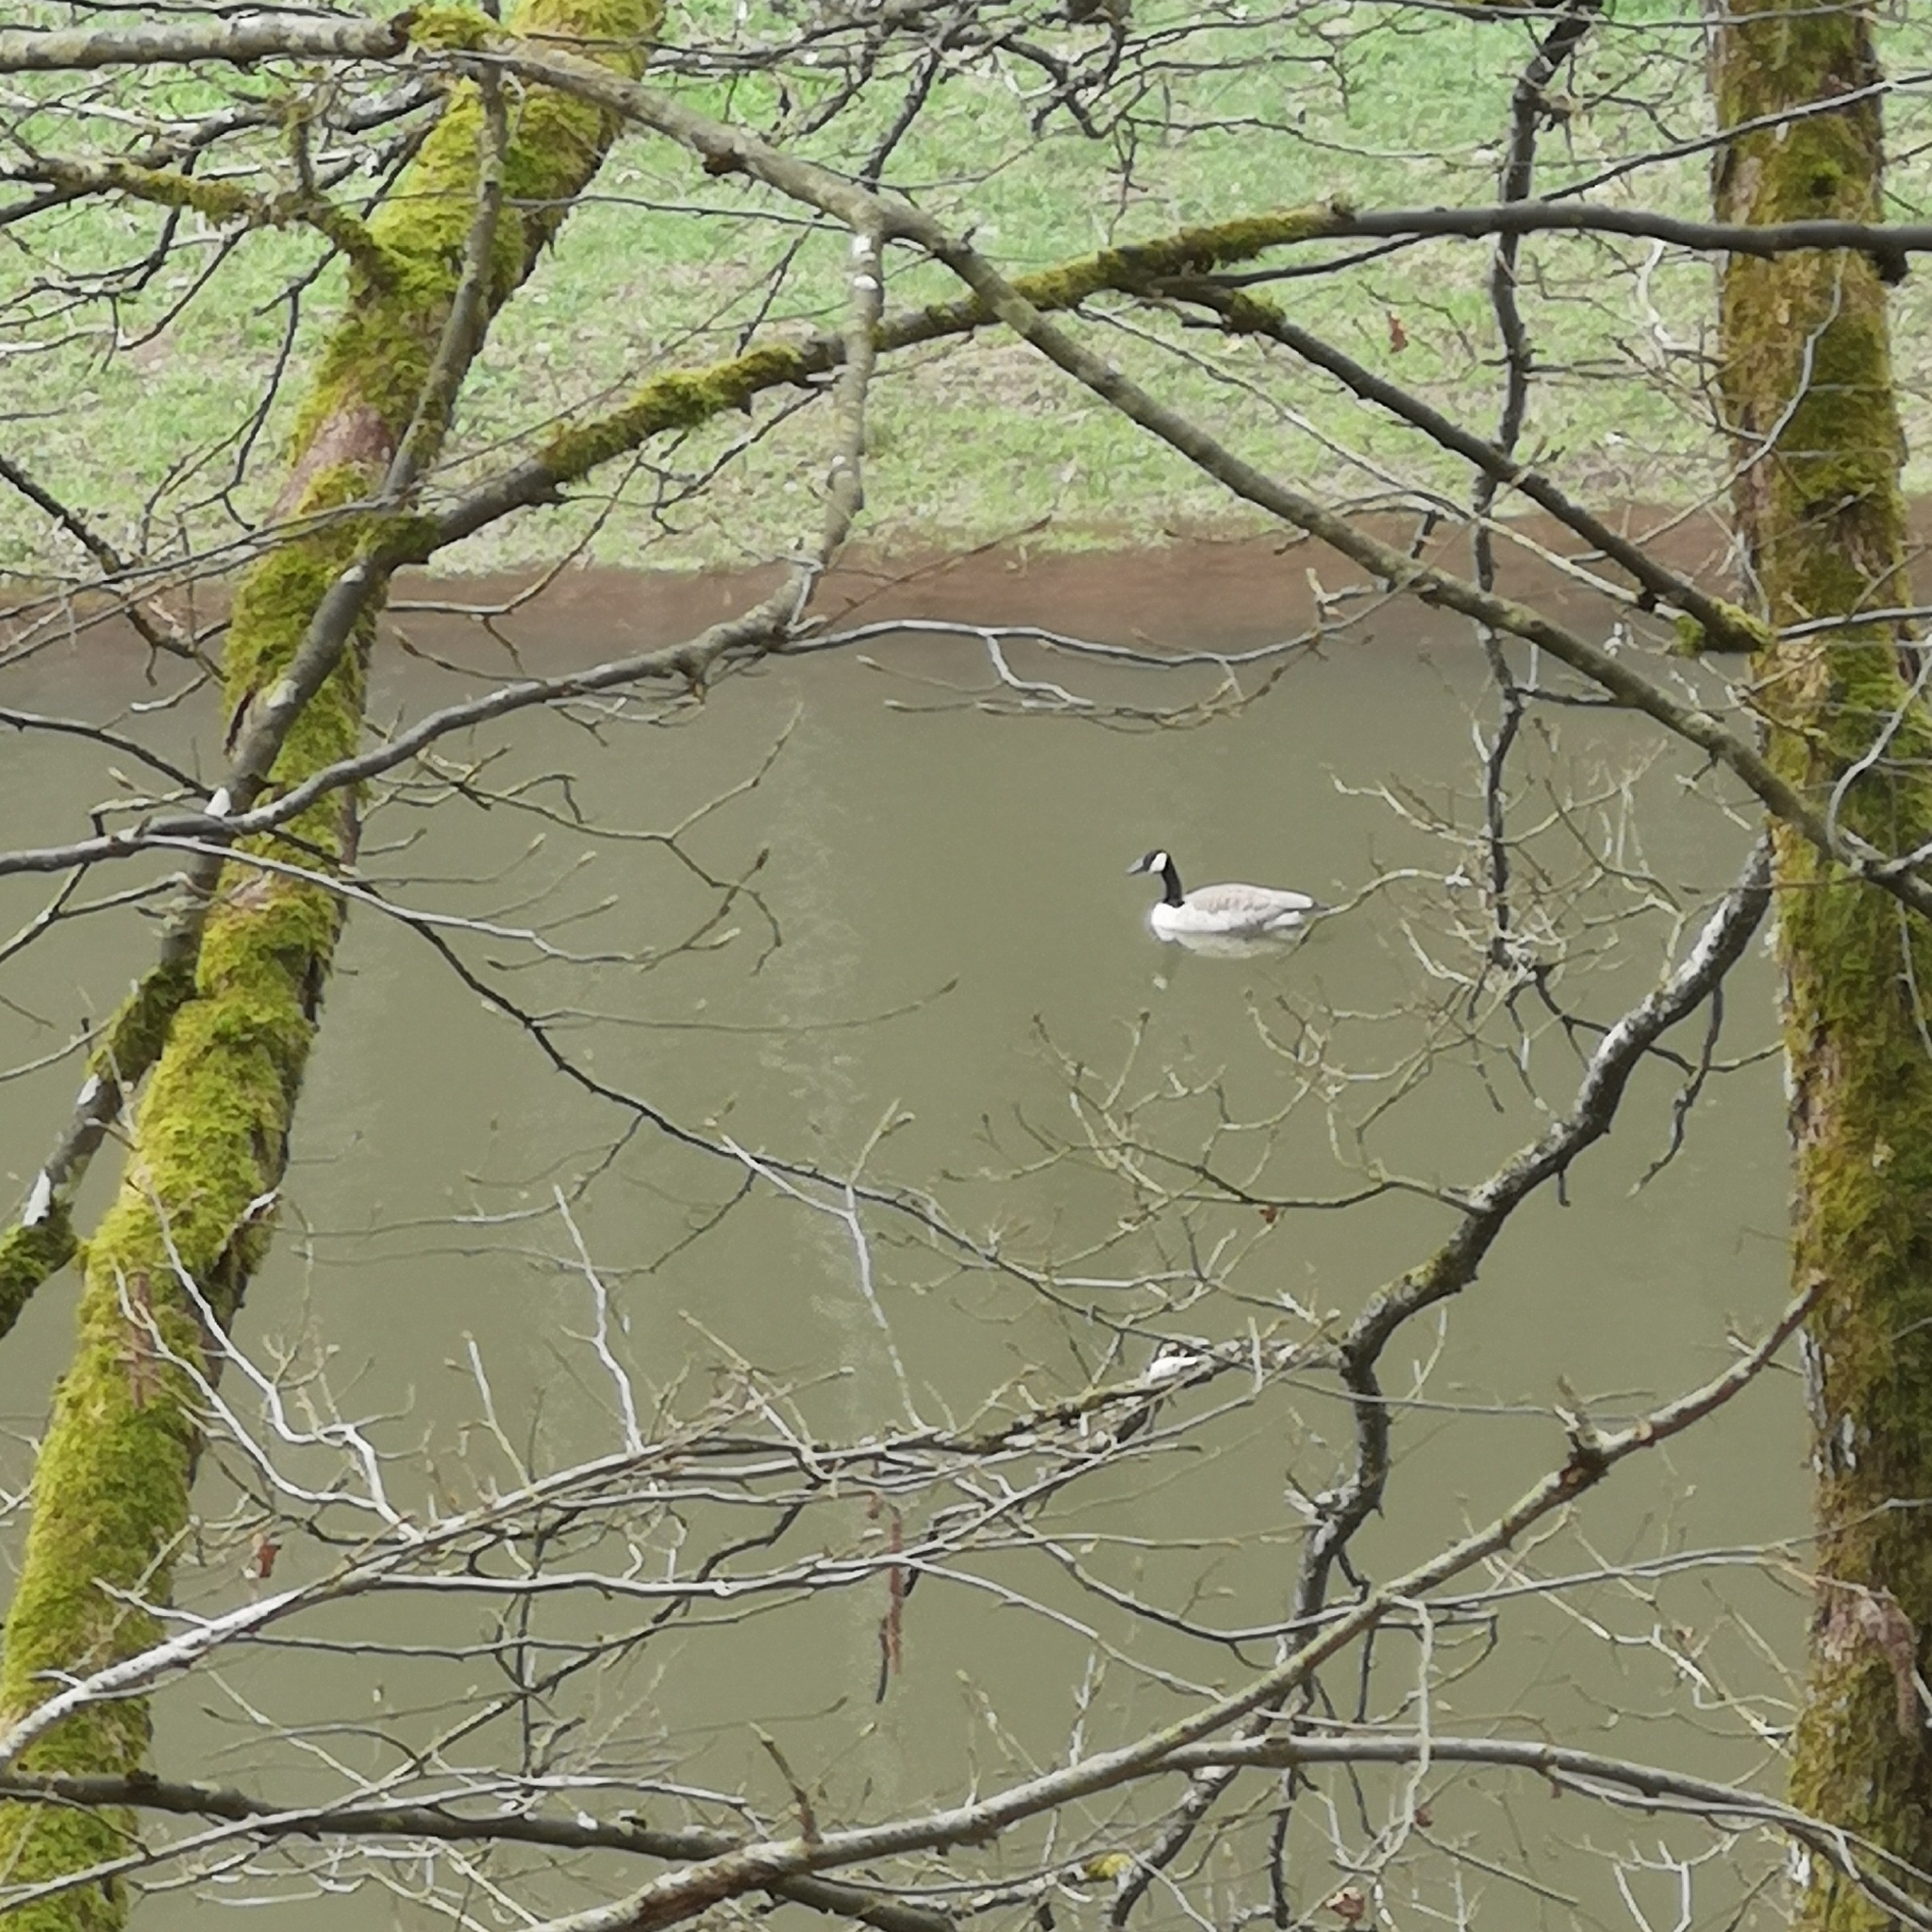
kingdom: Animalia
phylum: Chordata
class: Aves
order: Anseriformes
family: Anatidae
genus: Branta
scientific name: Branta canadensis
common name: Canada goose
